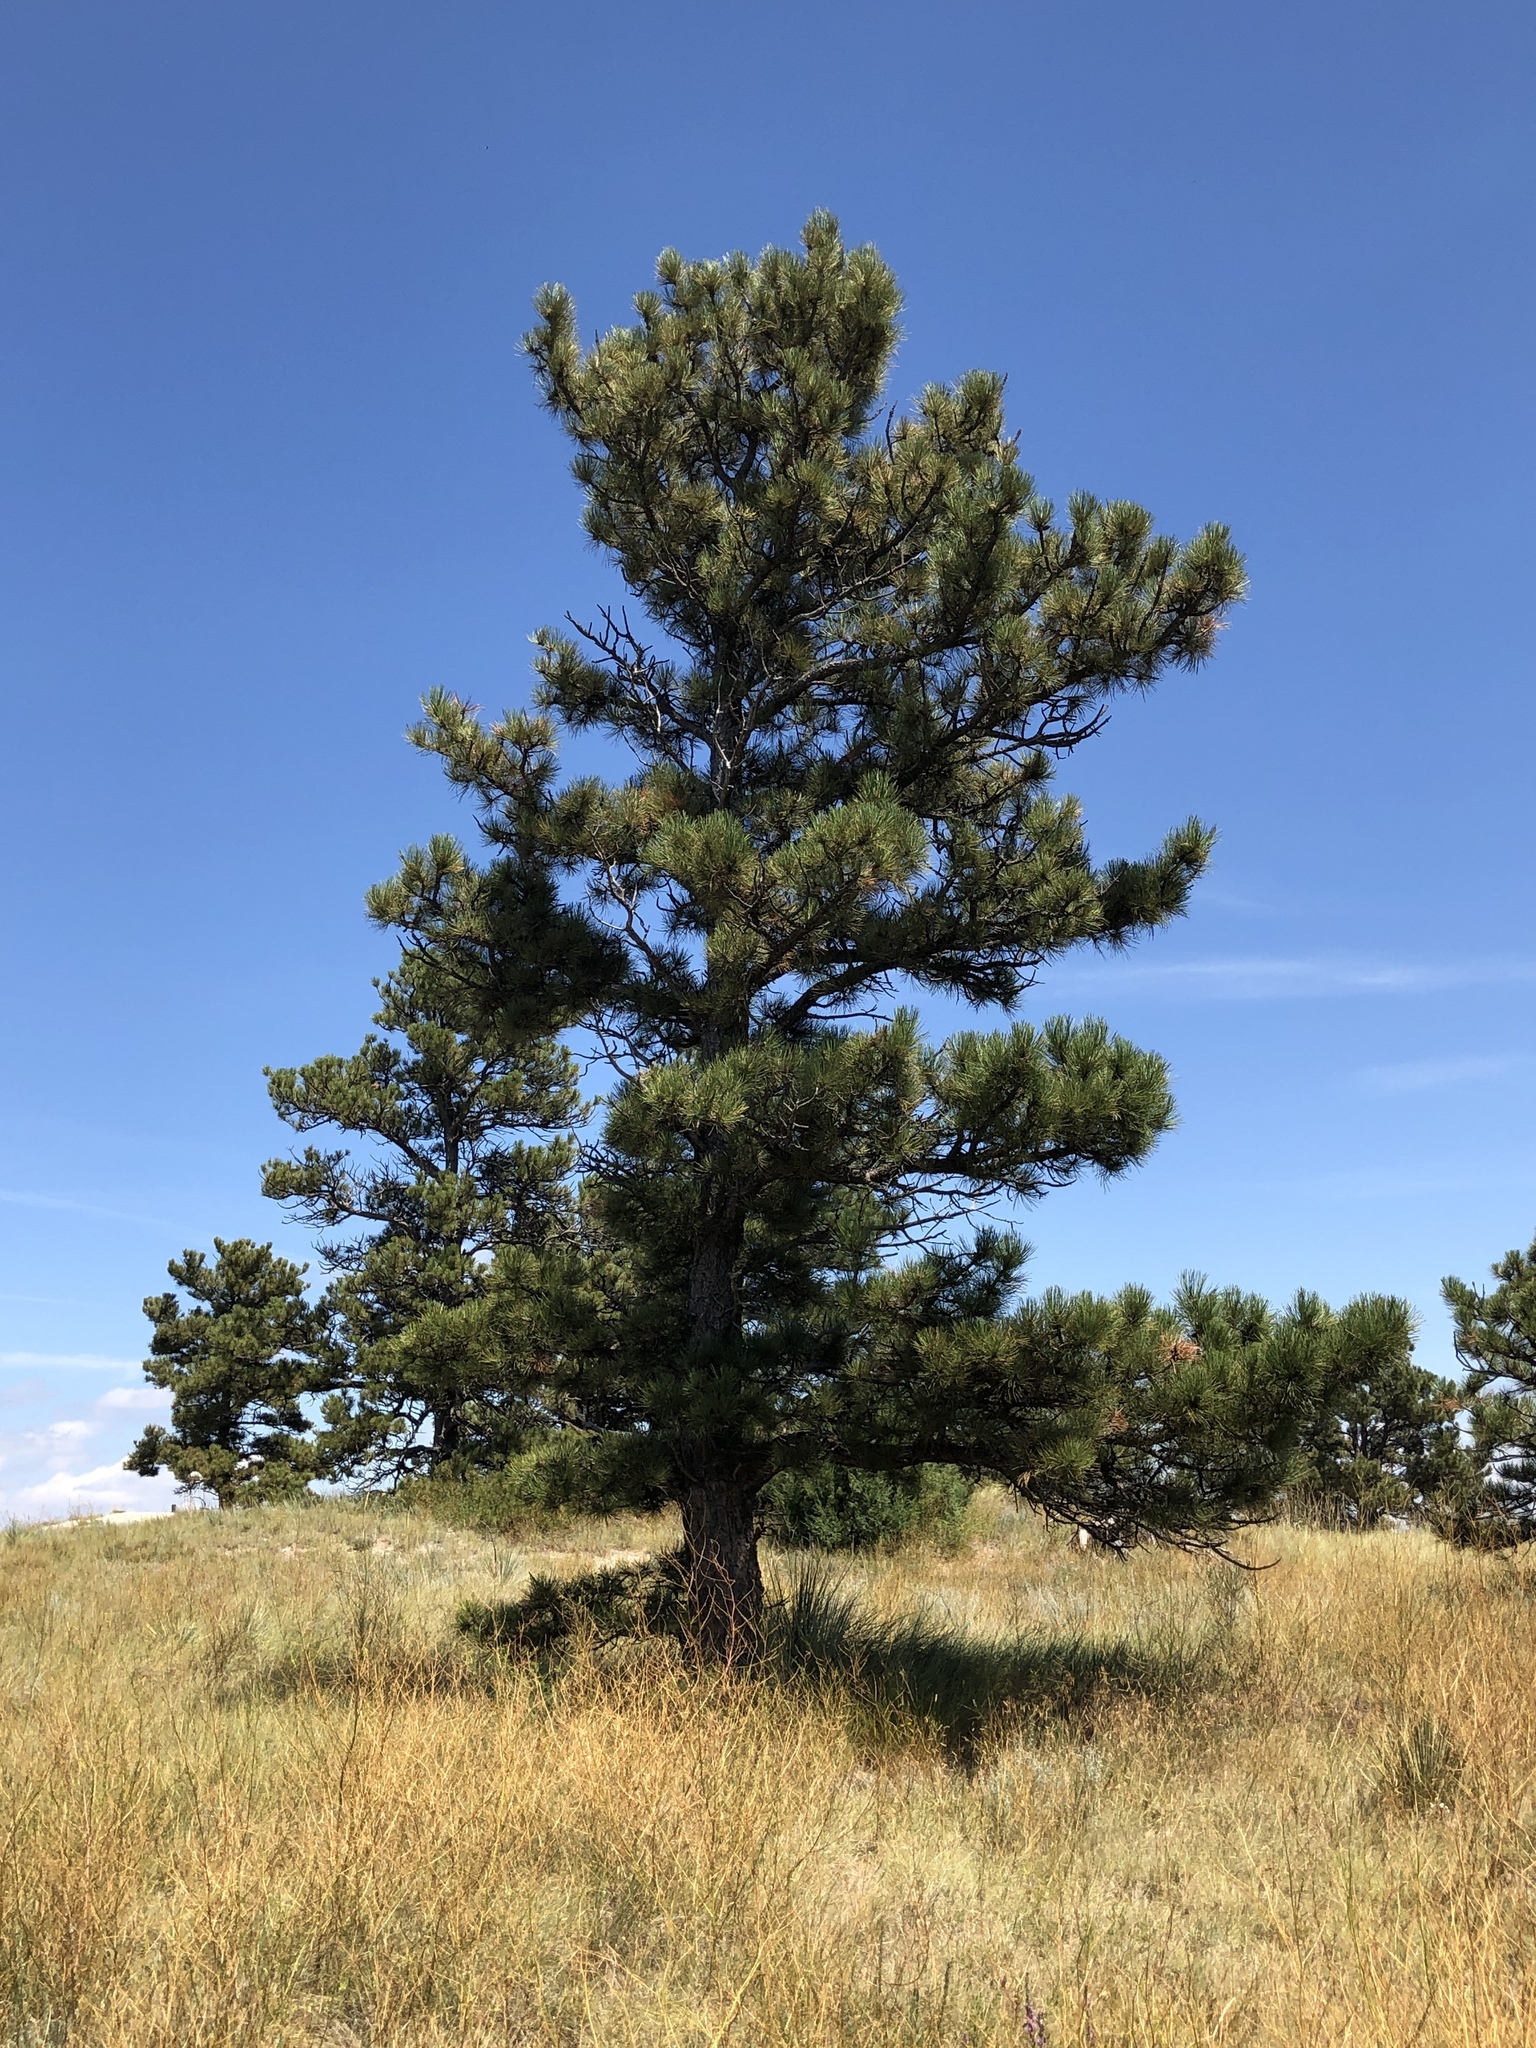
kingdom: Plantae
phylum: Tracheophyta
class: Pinopsida
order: Pinales
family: Pinaceae
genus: Pinus
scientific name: Pinus ponderosa
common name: Western yellow-pine
